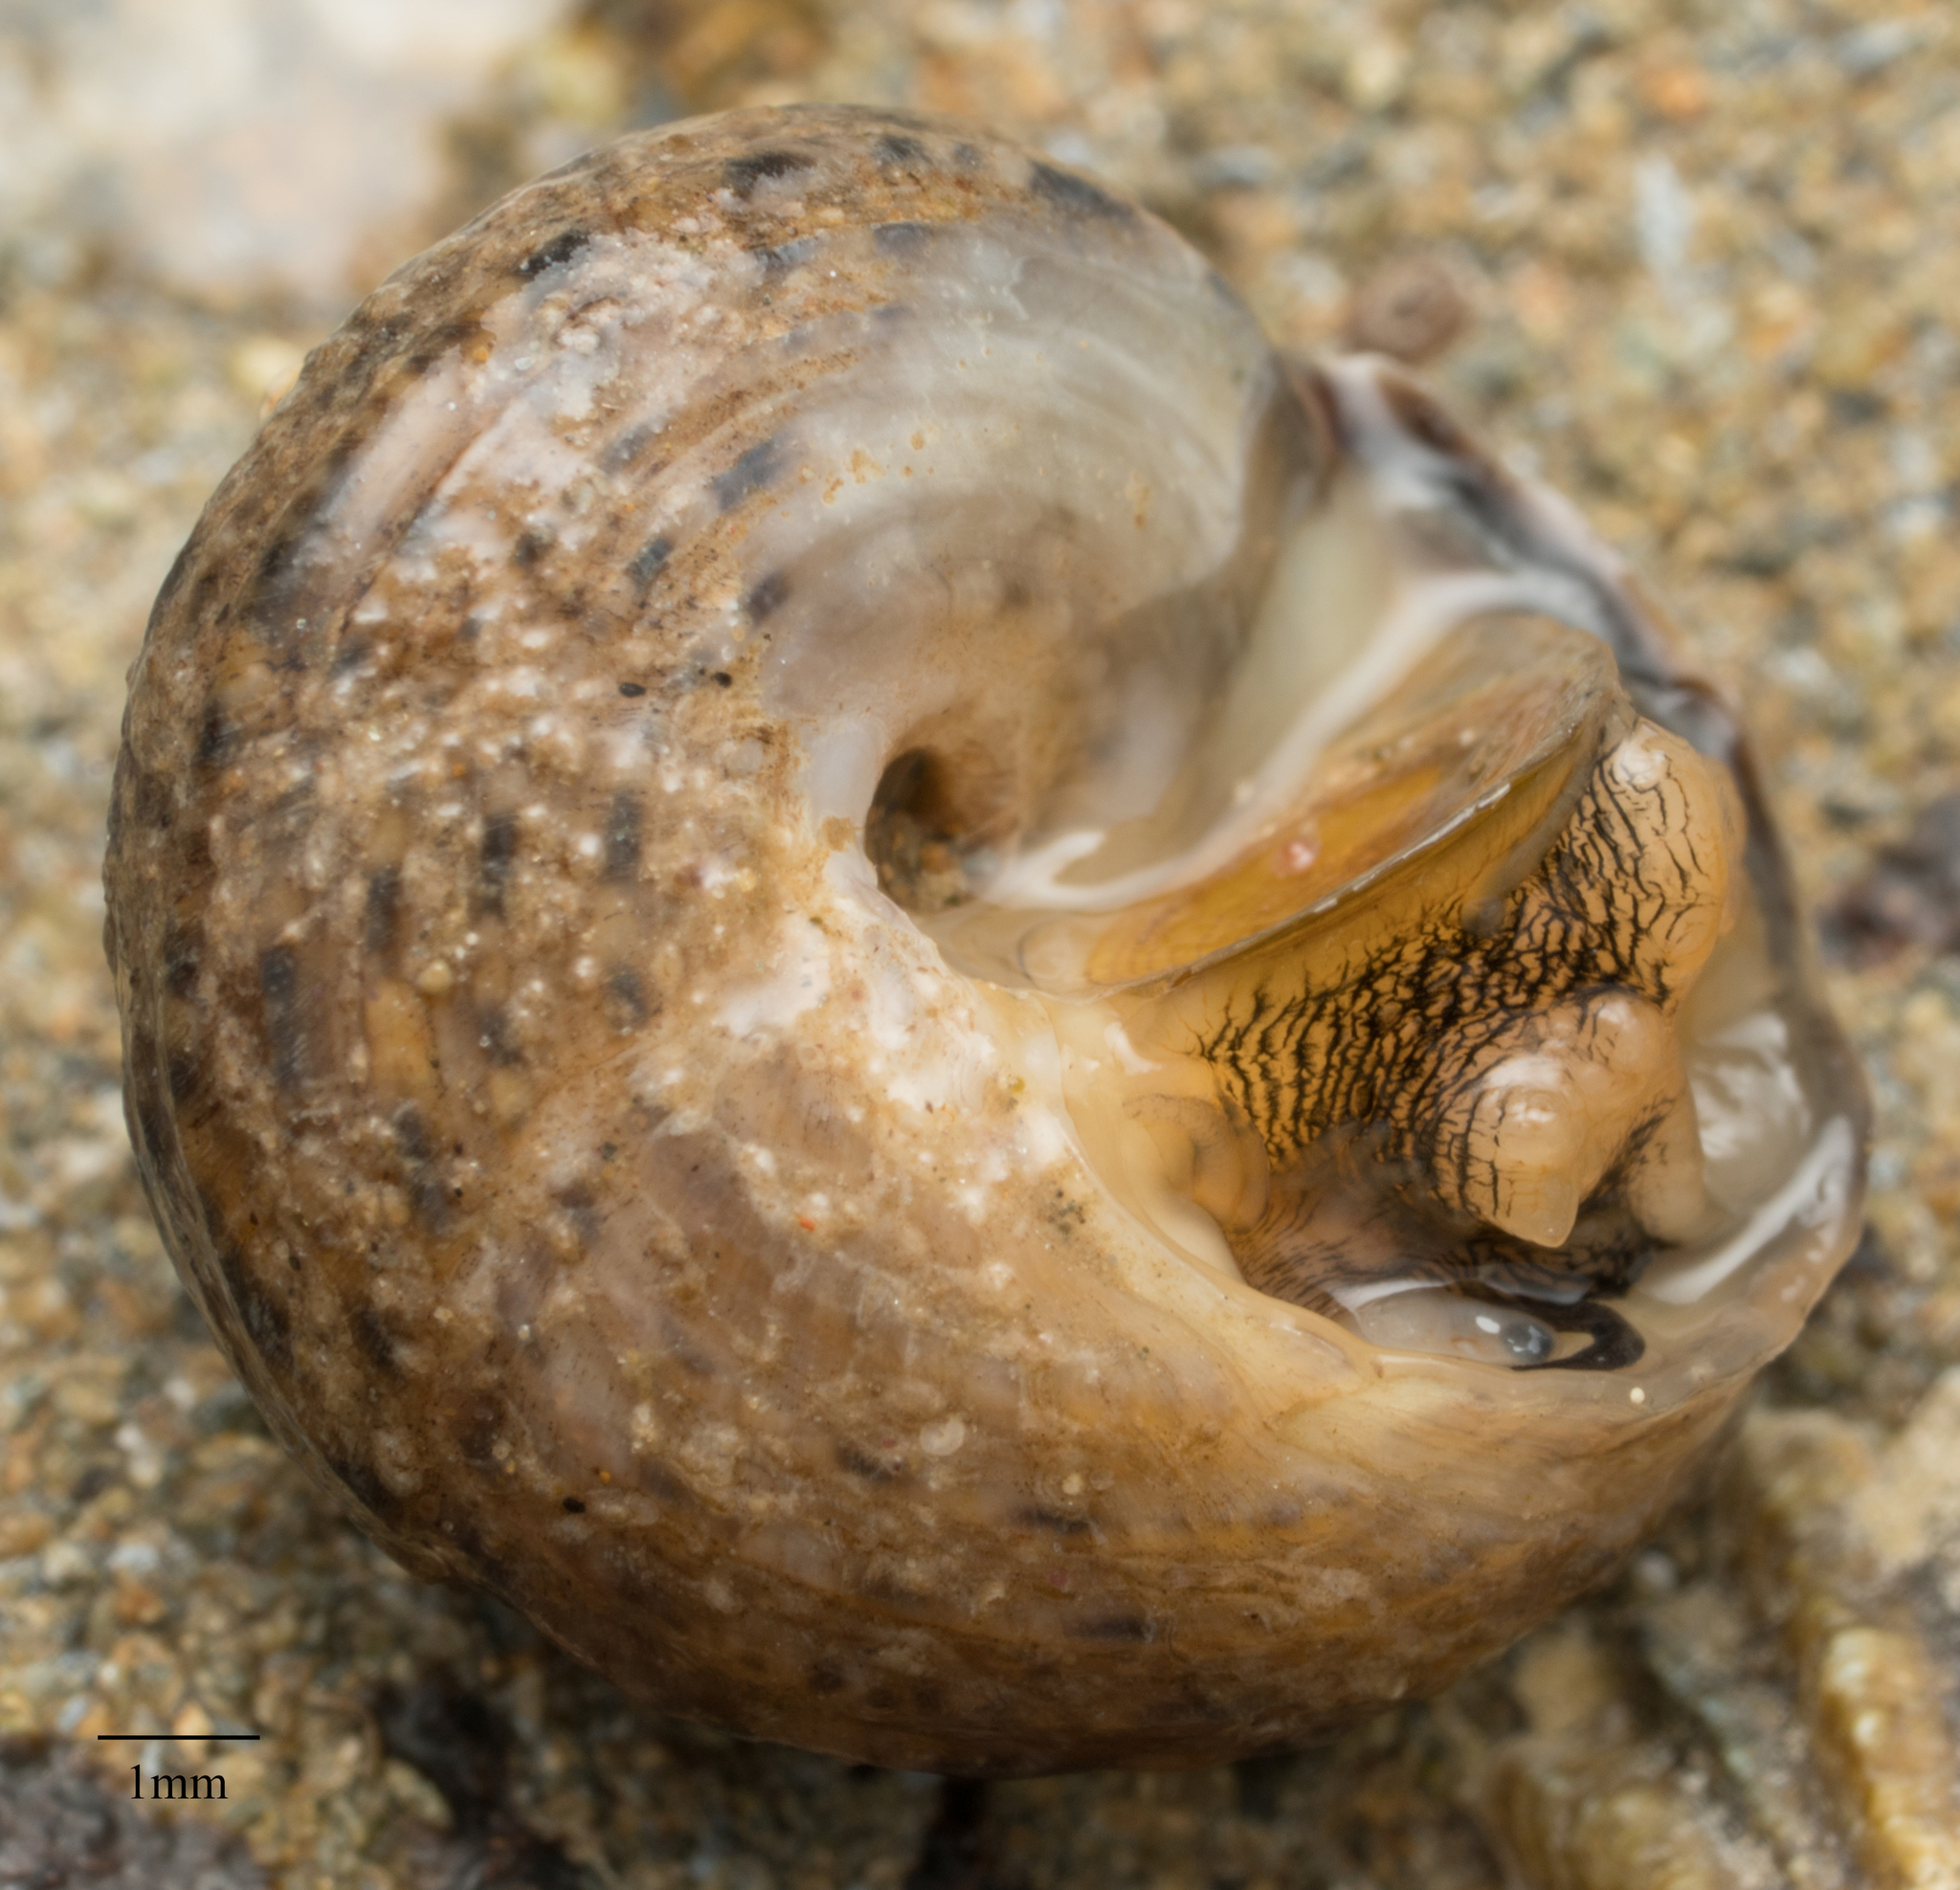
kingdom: Animalia
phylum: Mollusca
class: Gastropoda
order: Trochida
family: Tegulidae
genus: Tegula
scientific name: Tegula eiseni
